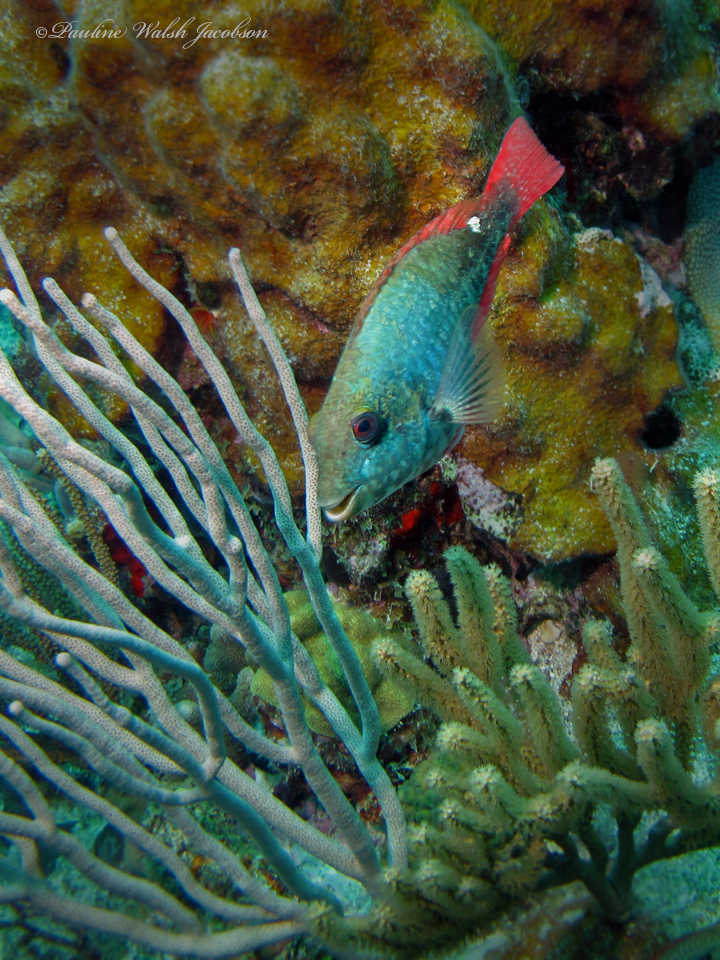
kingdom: Animalia
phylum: Chordata
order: Perciformes
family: Scaridae
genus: Sparisoma
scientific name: Sparisoma aurofrenatum
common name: Redband parrotfish
